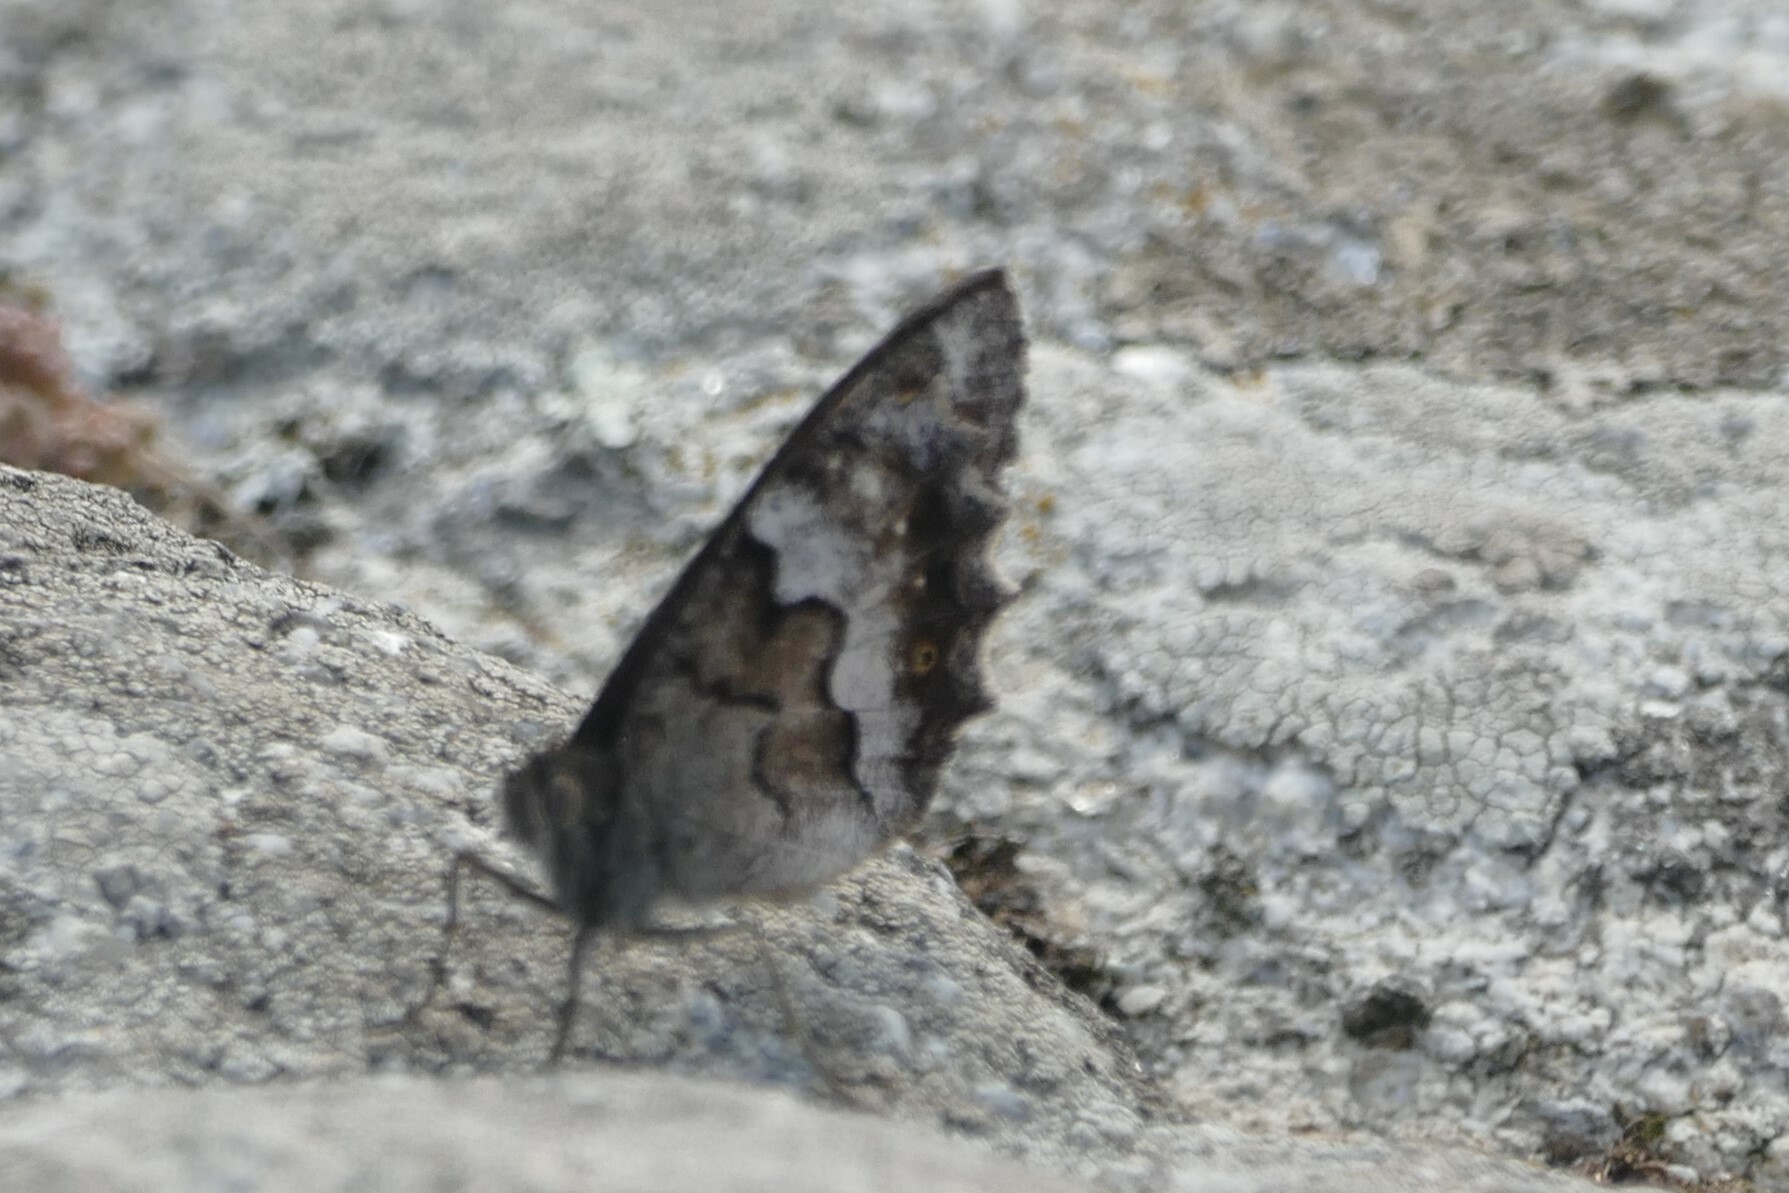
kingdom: Animalia
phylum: Arthropoda
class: Insecta
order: Lepidoptera
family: Nymphalidae
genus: Hipparchia
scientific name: Hipparchia statilinus
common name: Tree grayling
